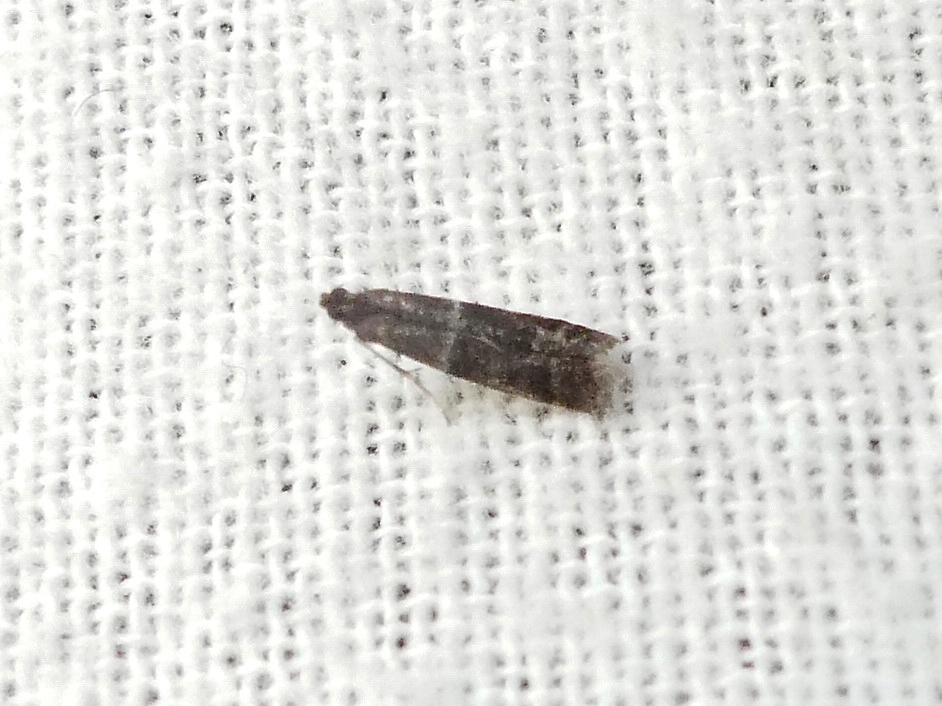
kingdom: Animalia
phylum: Arthropoda
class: Insecta
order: Lepidoptera
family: Pyralidae
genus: Moodna
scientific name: Moodna ostrinella
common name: Darker moodna moth
